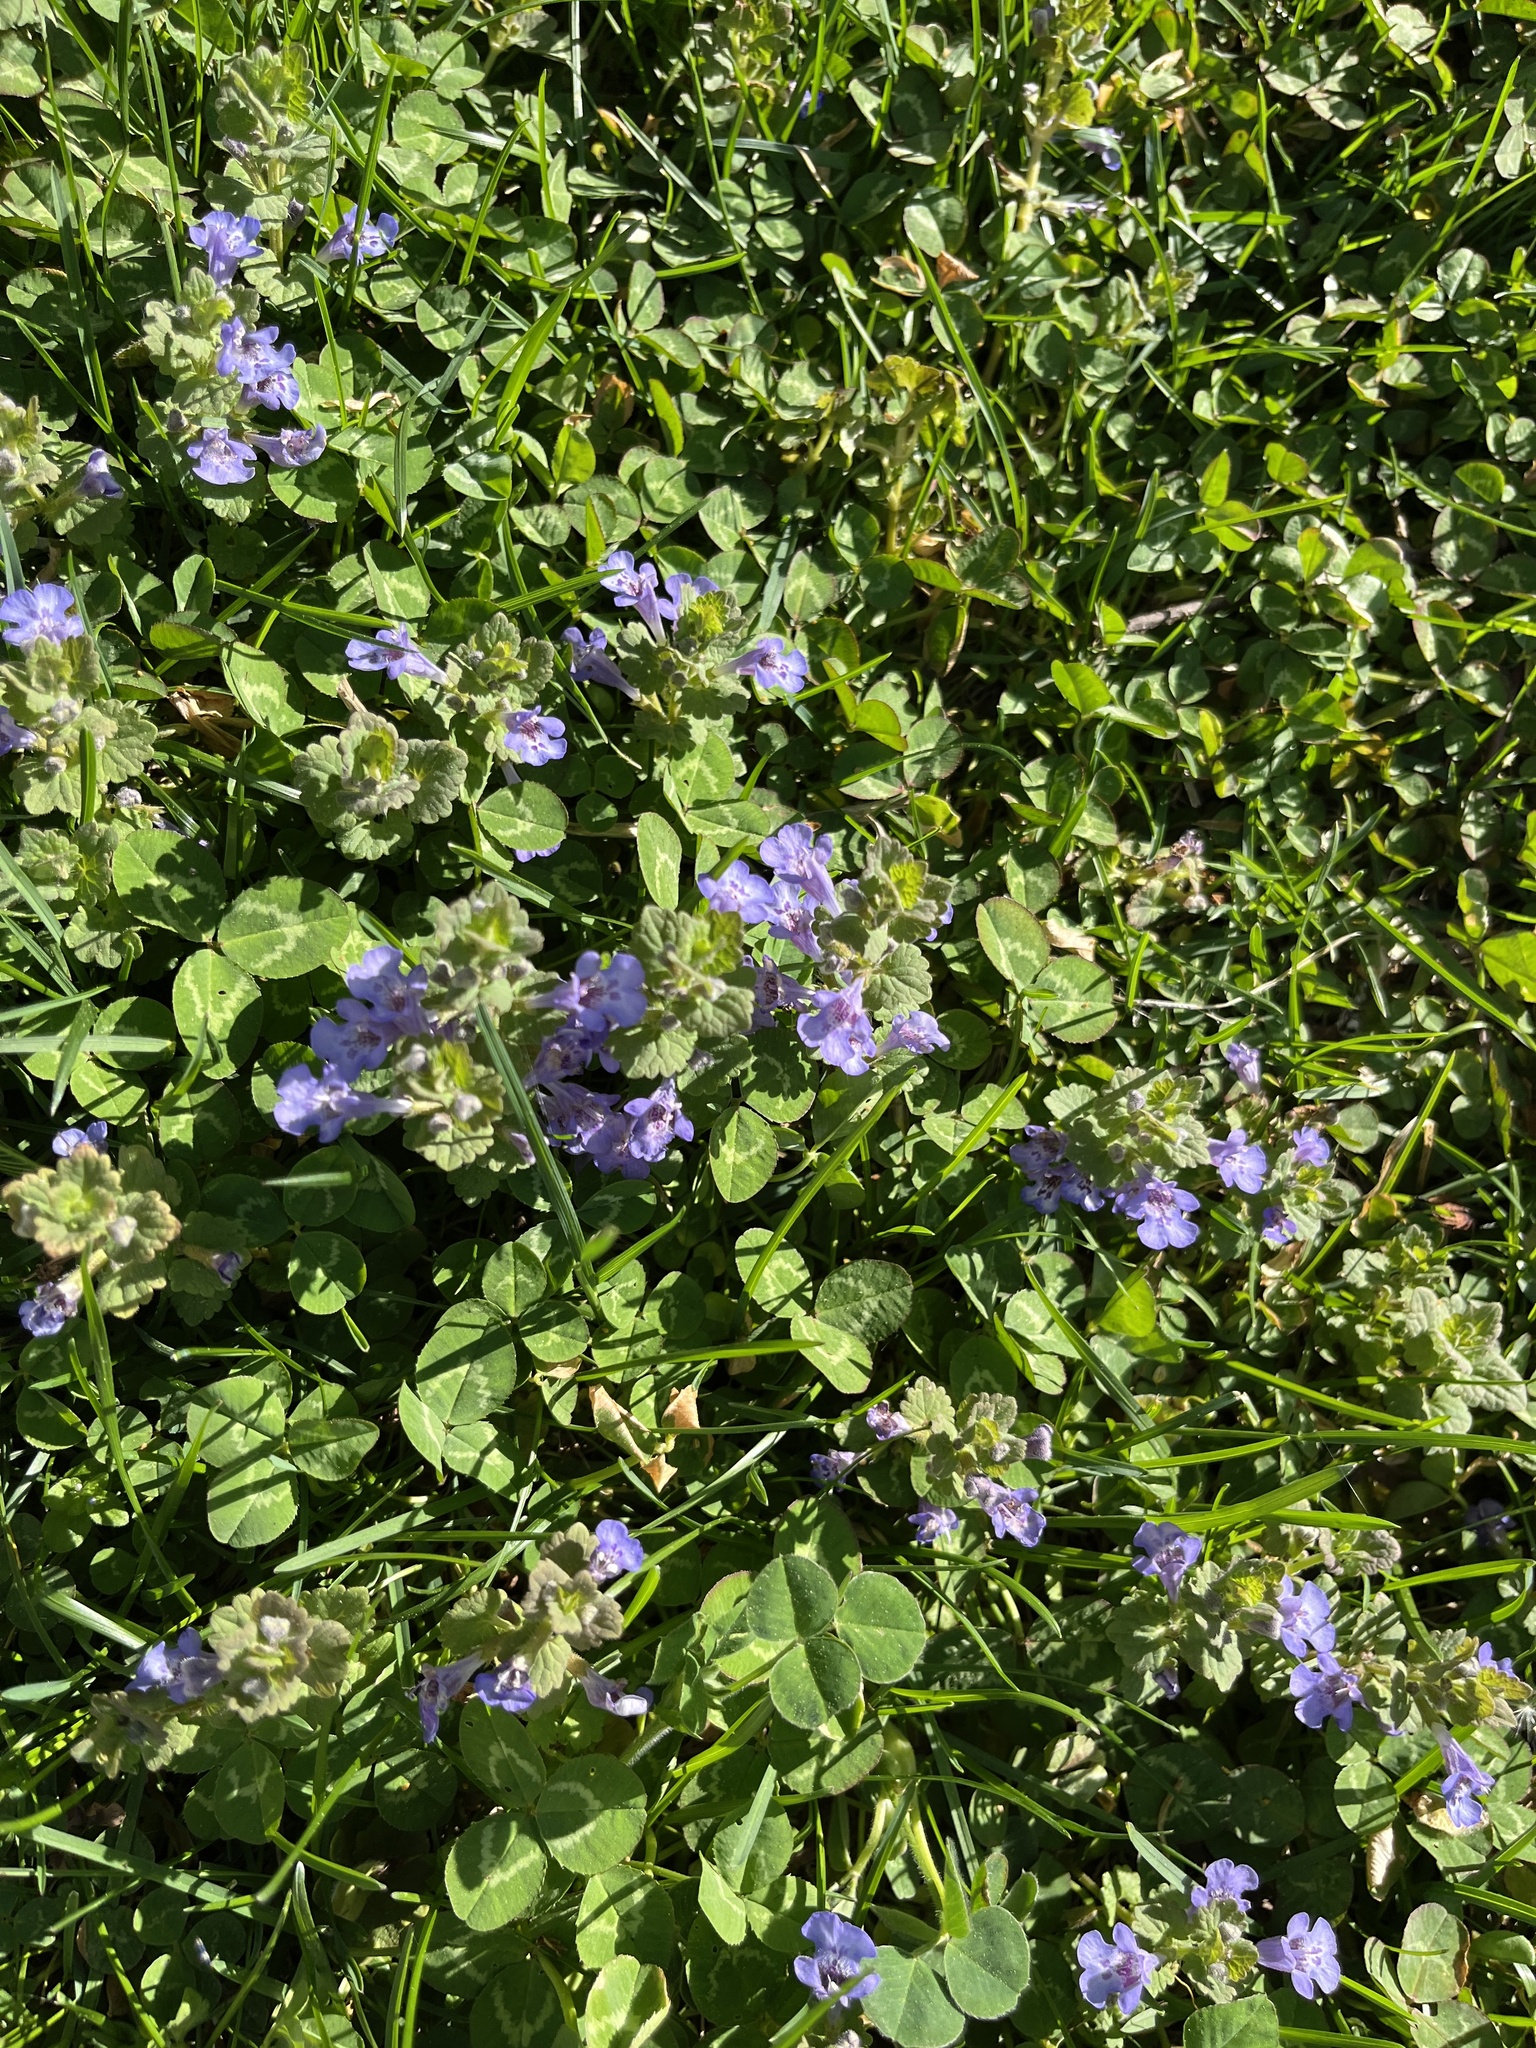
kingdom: Plantae
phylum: Tracheophyta
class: Magnoliopsida
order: Lamiales
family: Lamiaceae
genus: Glechoma
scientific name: Glechoma hederacea
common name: Ground ivy
